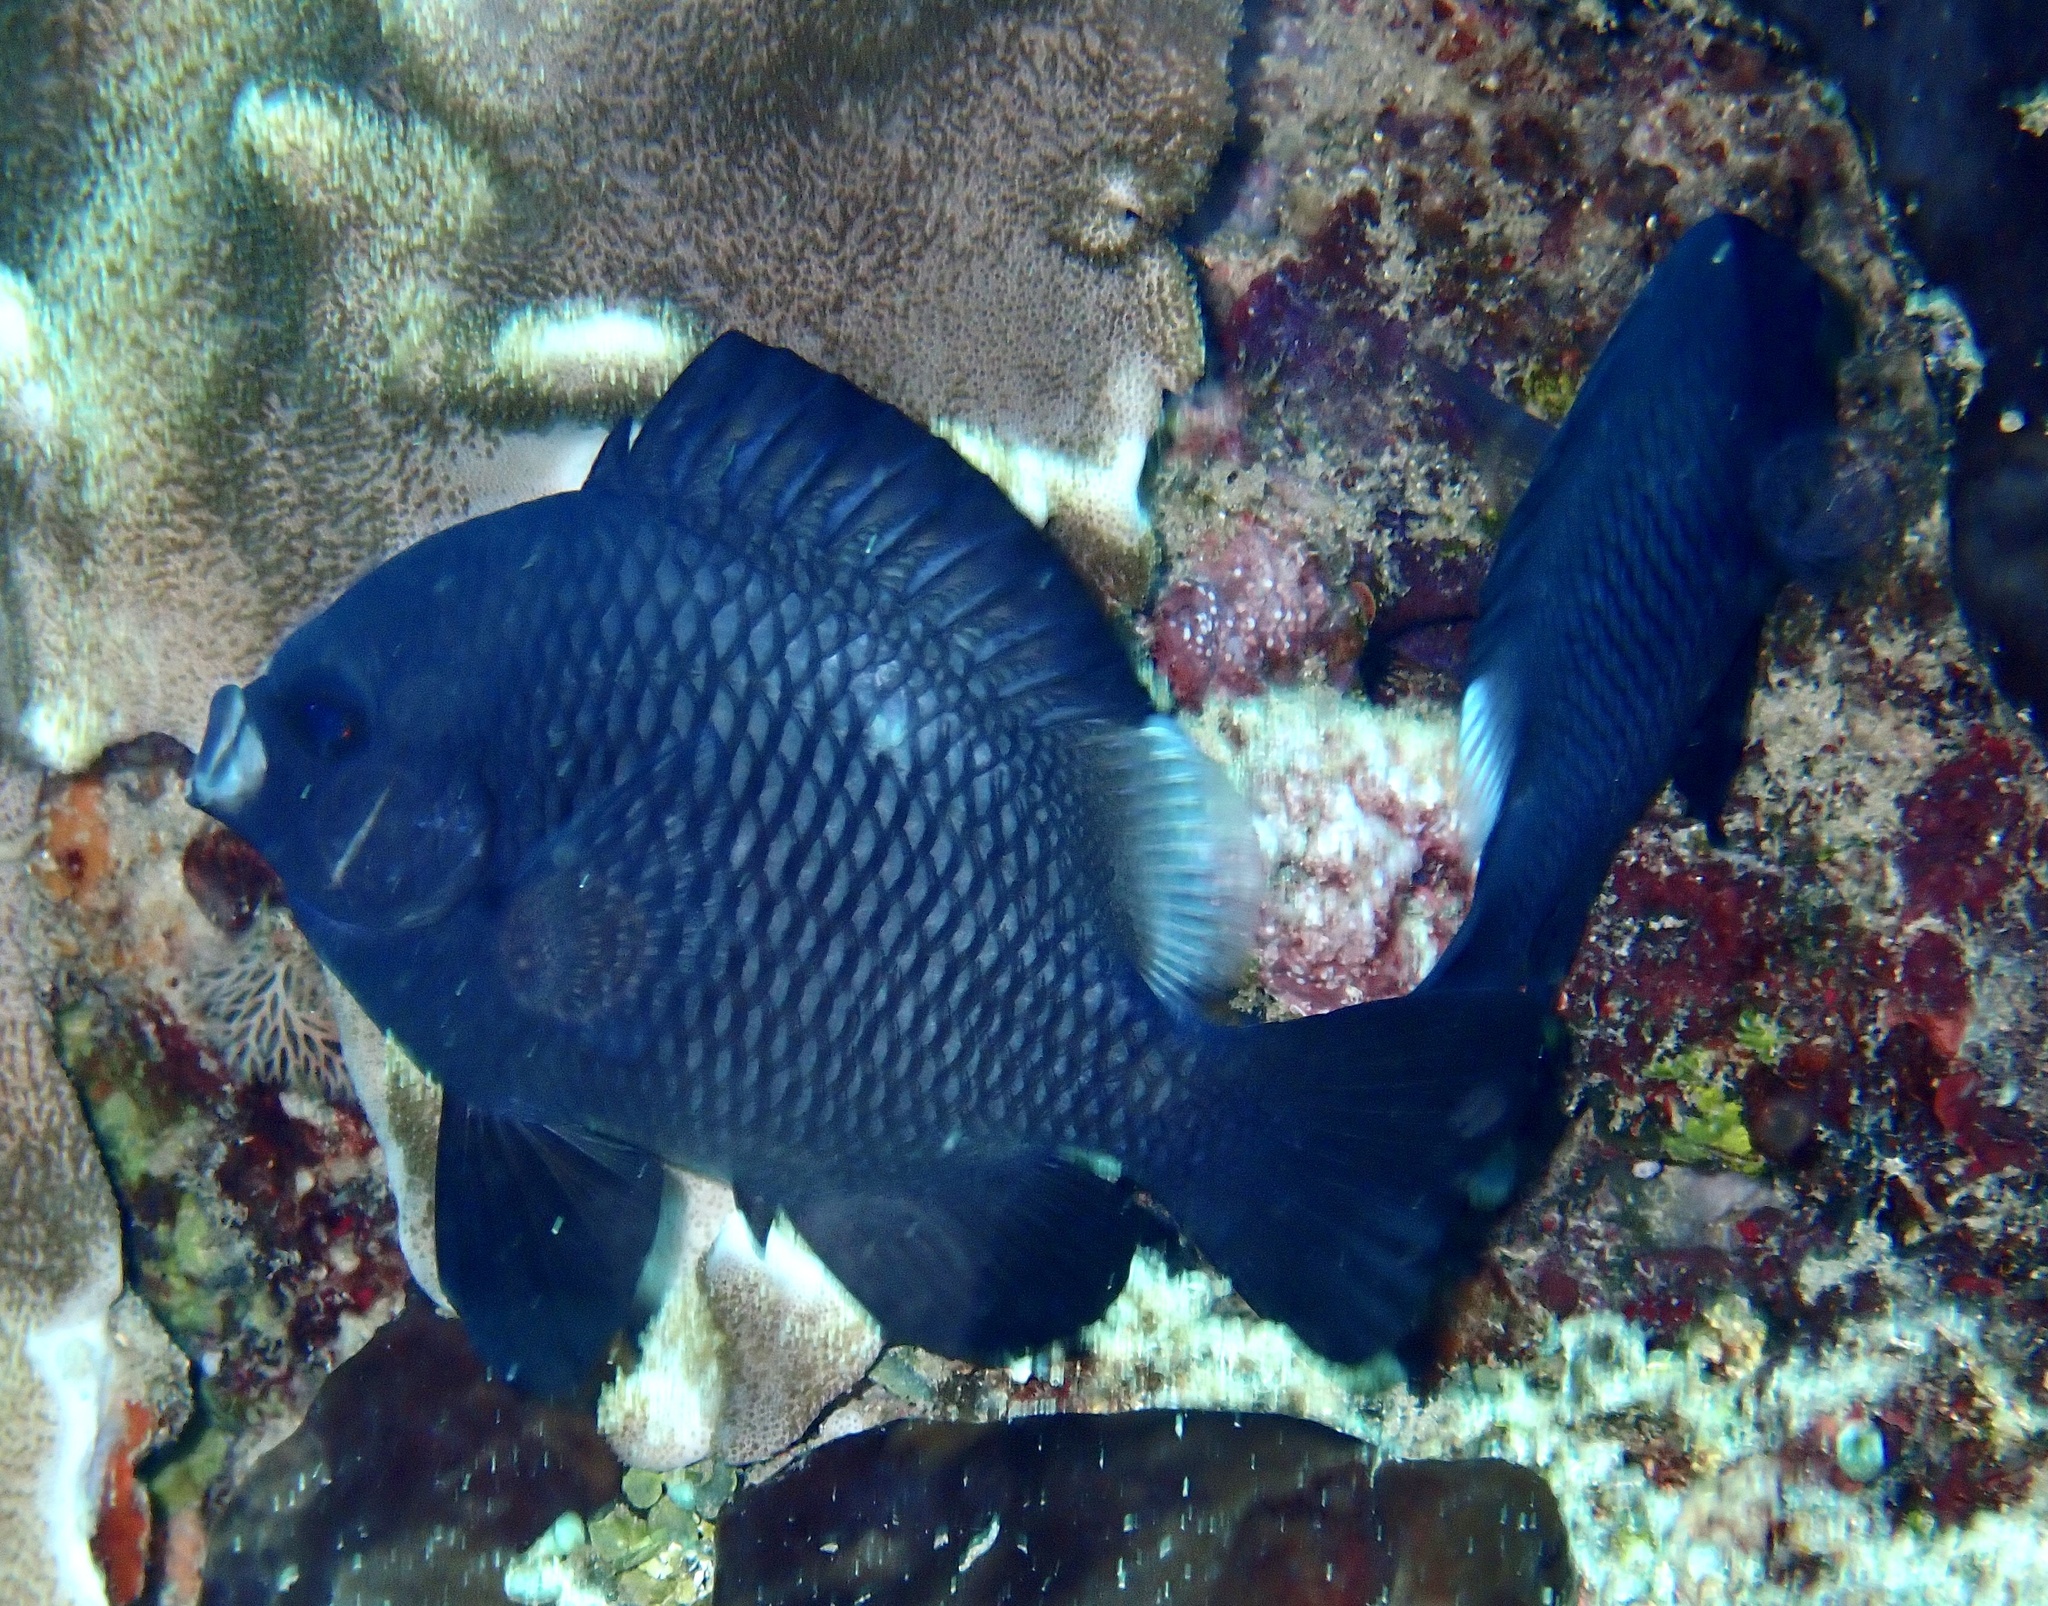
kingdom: Animalia
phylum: Chordata
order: Perciformes
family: Pomacentridae
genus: Dascyllus
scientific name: Dascyllus trimaculatus
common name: Threespot dascyllus
